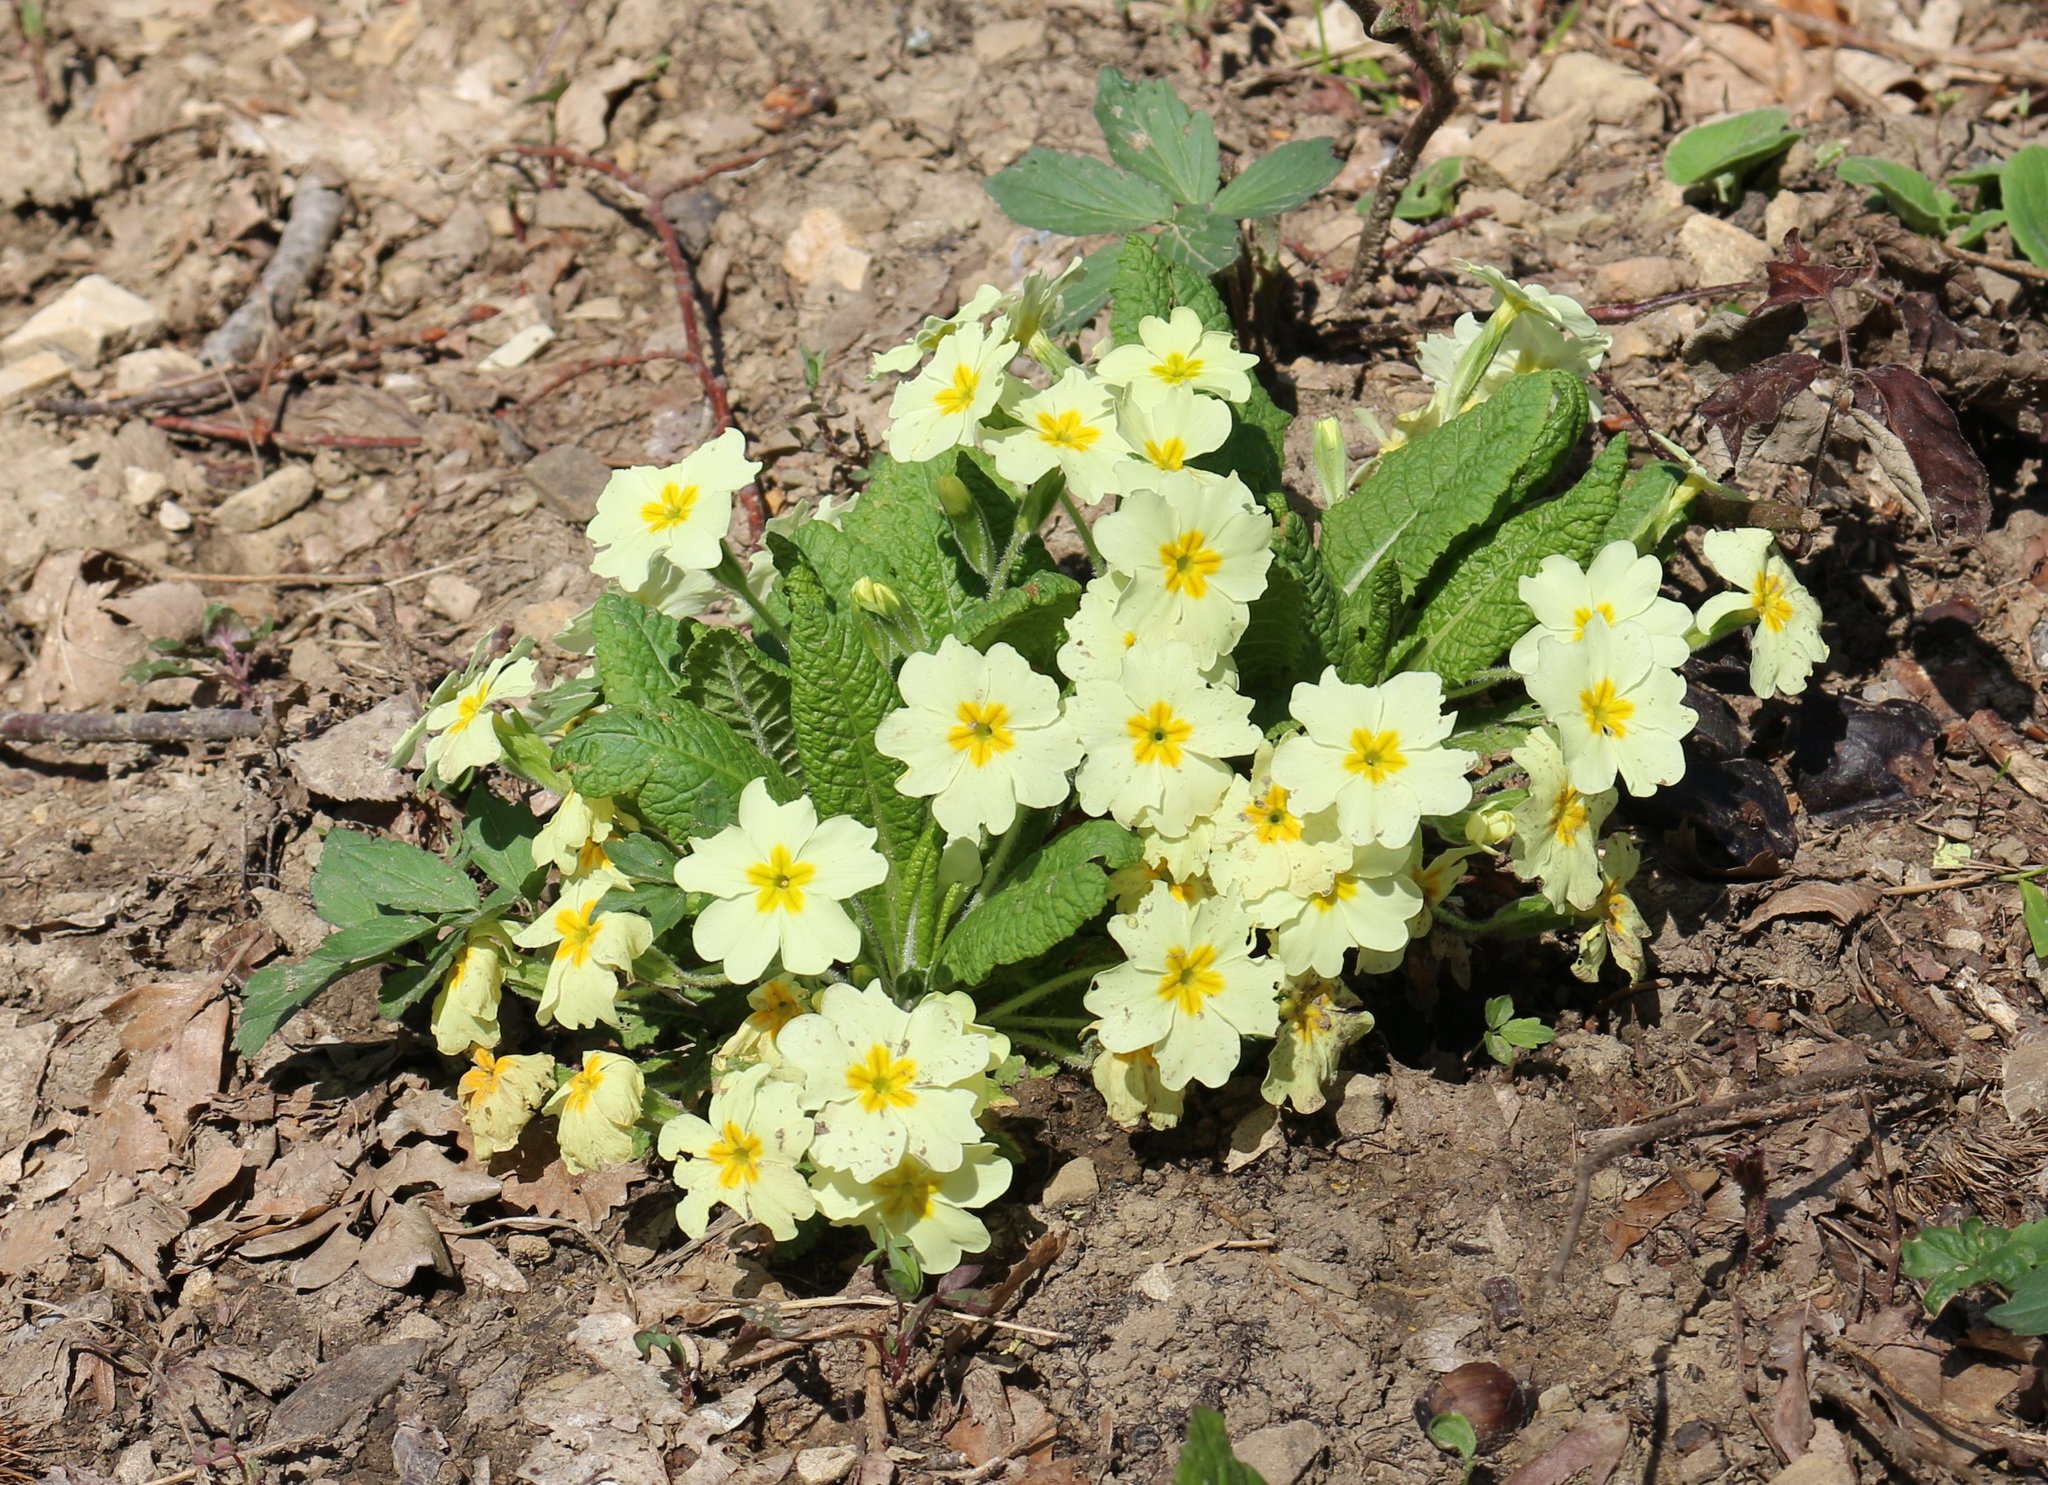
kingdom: Plantae
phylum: Tracheophyta
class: Magnoliopsida
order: Ericales
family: Primulaceae
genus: Primula
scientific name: Primula vulgaris
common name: Primrose
